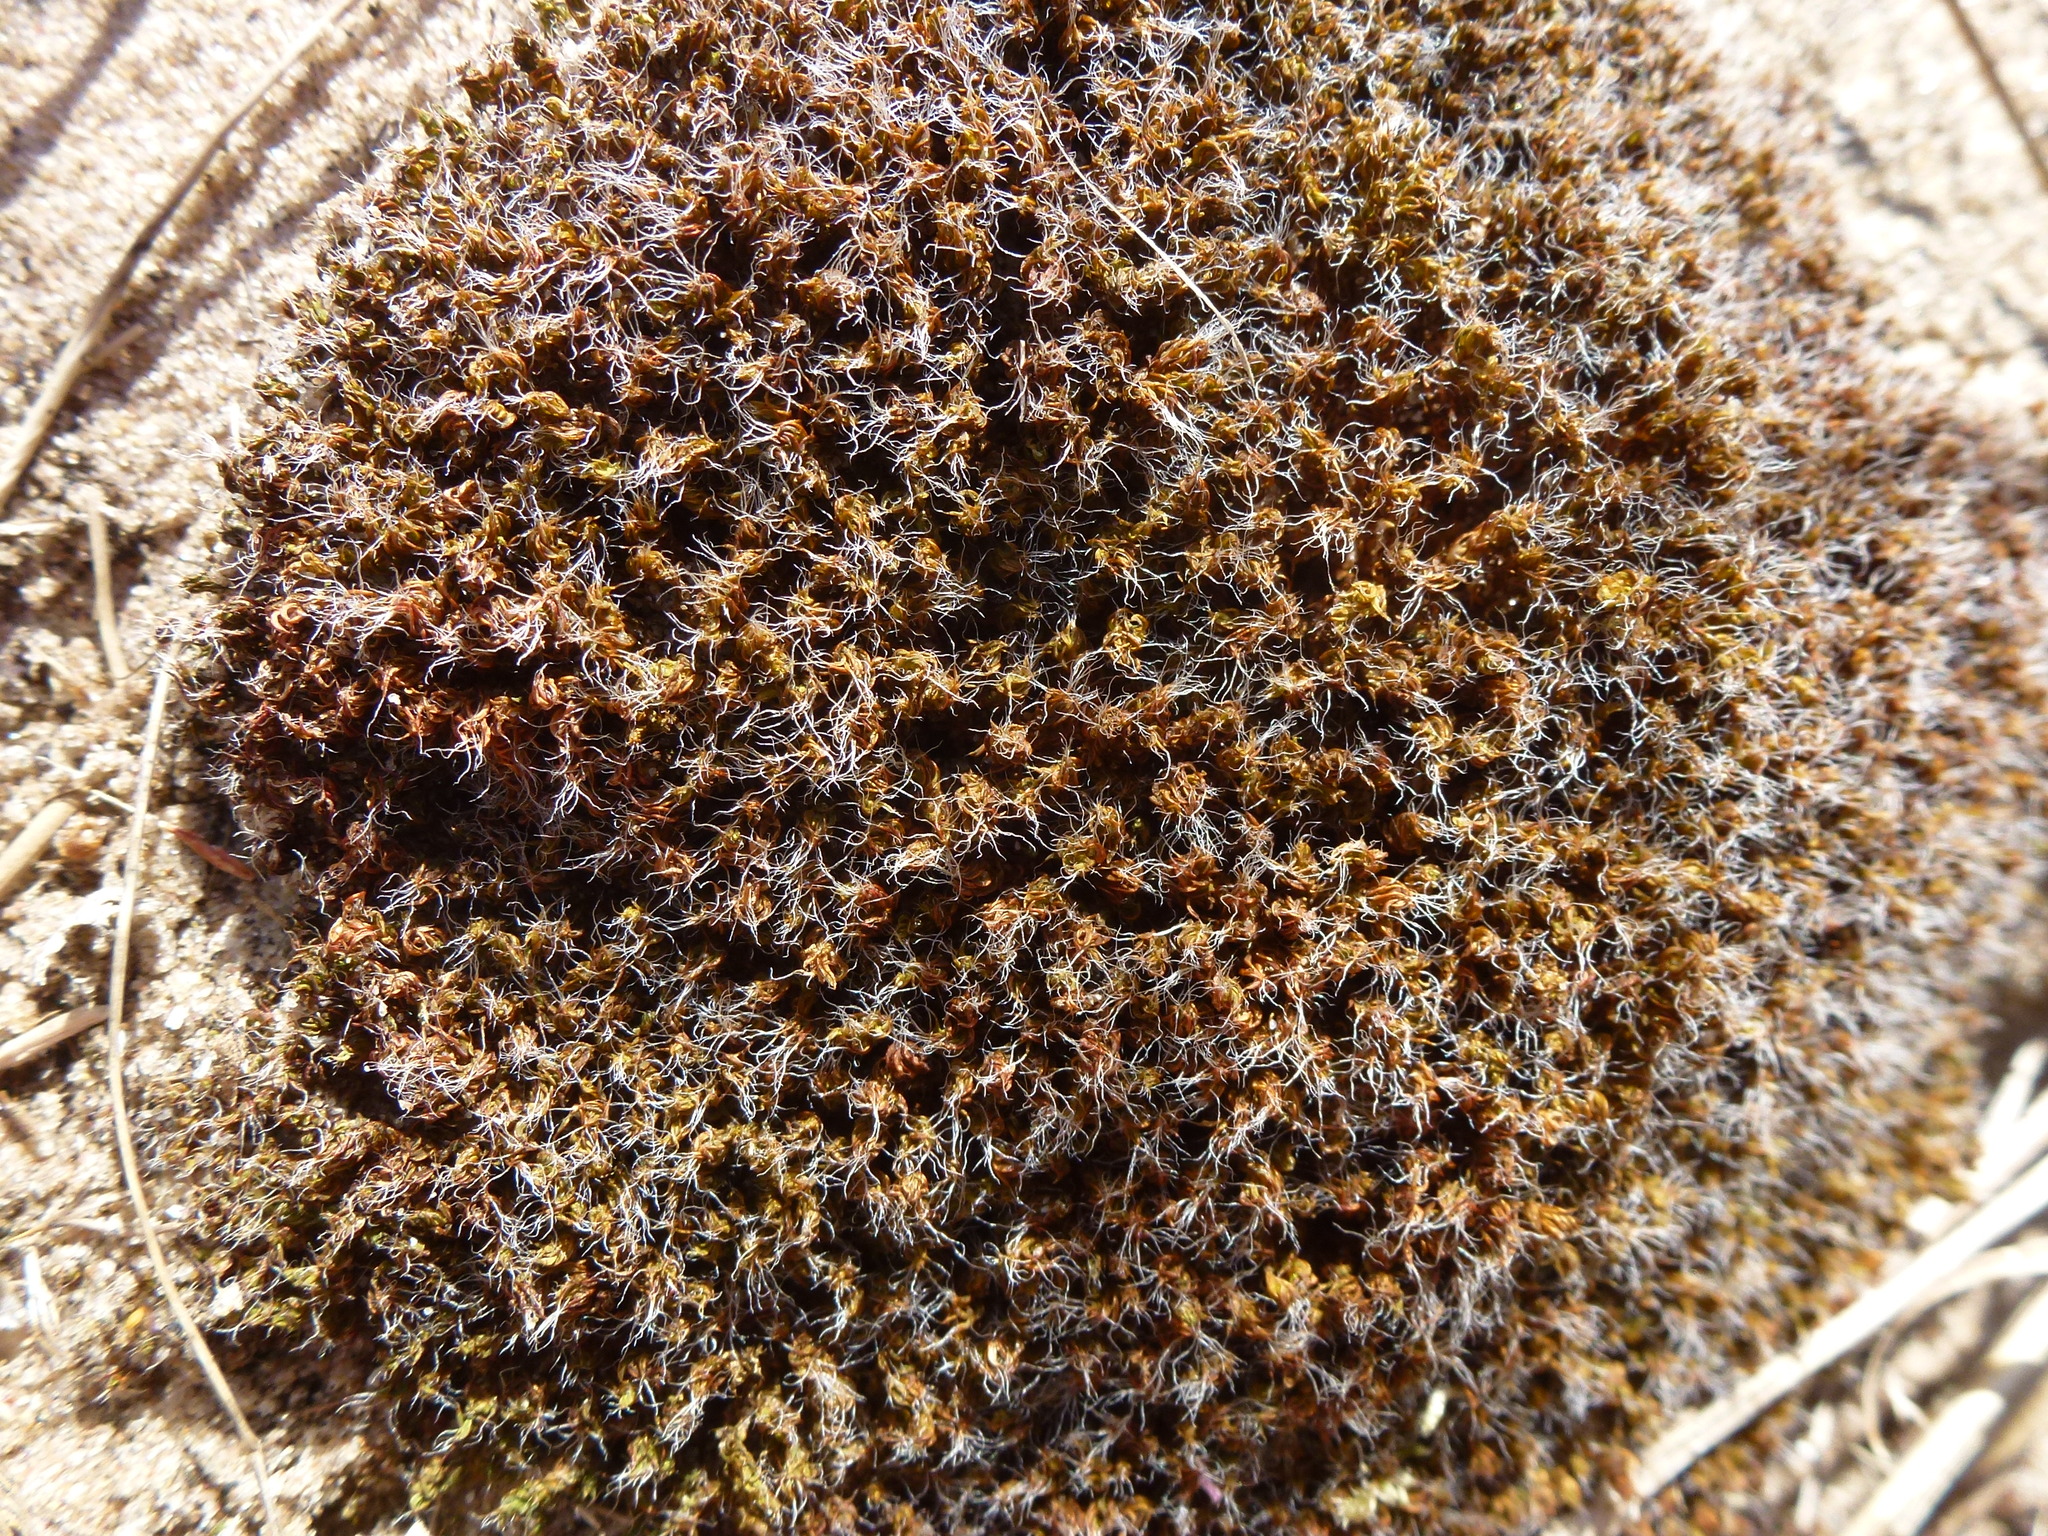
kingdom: Plantae
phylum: Bryophyta
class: Bryopsida
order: Pottiales
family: Pottiaceae
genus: Syntrichia
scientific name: Syntrichia ruralis
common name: Sidewalk screw moss
